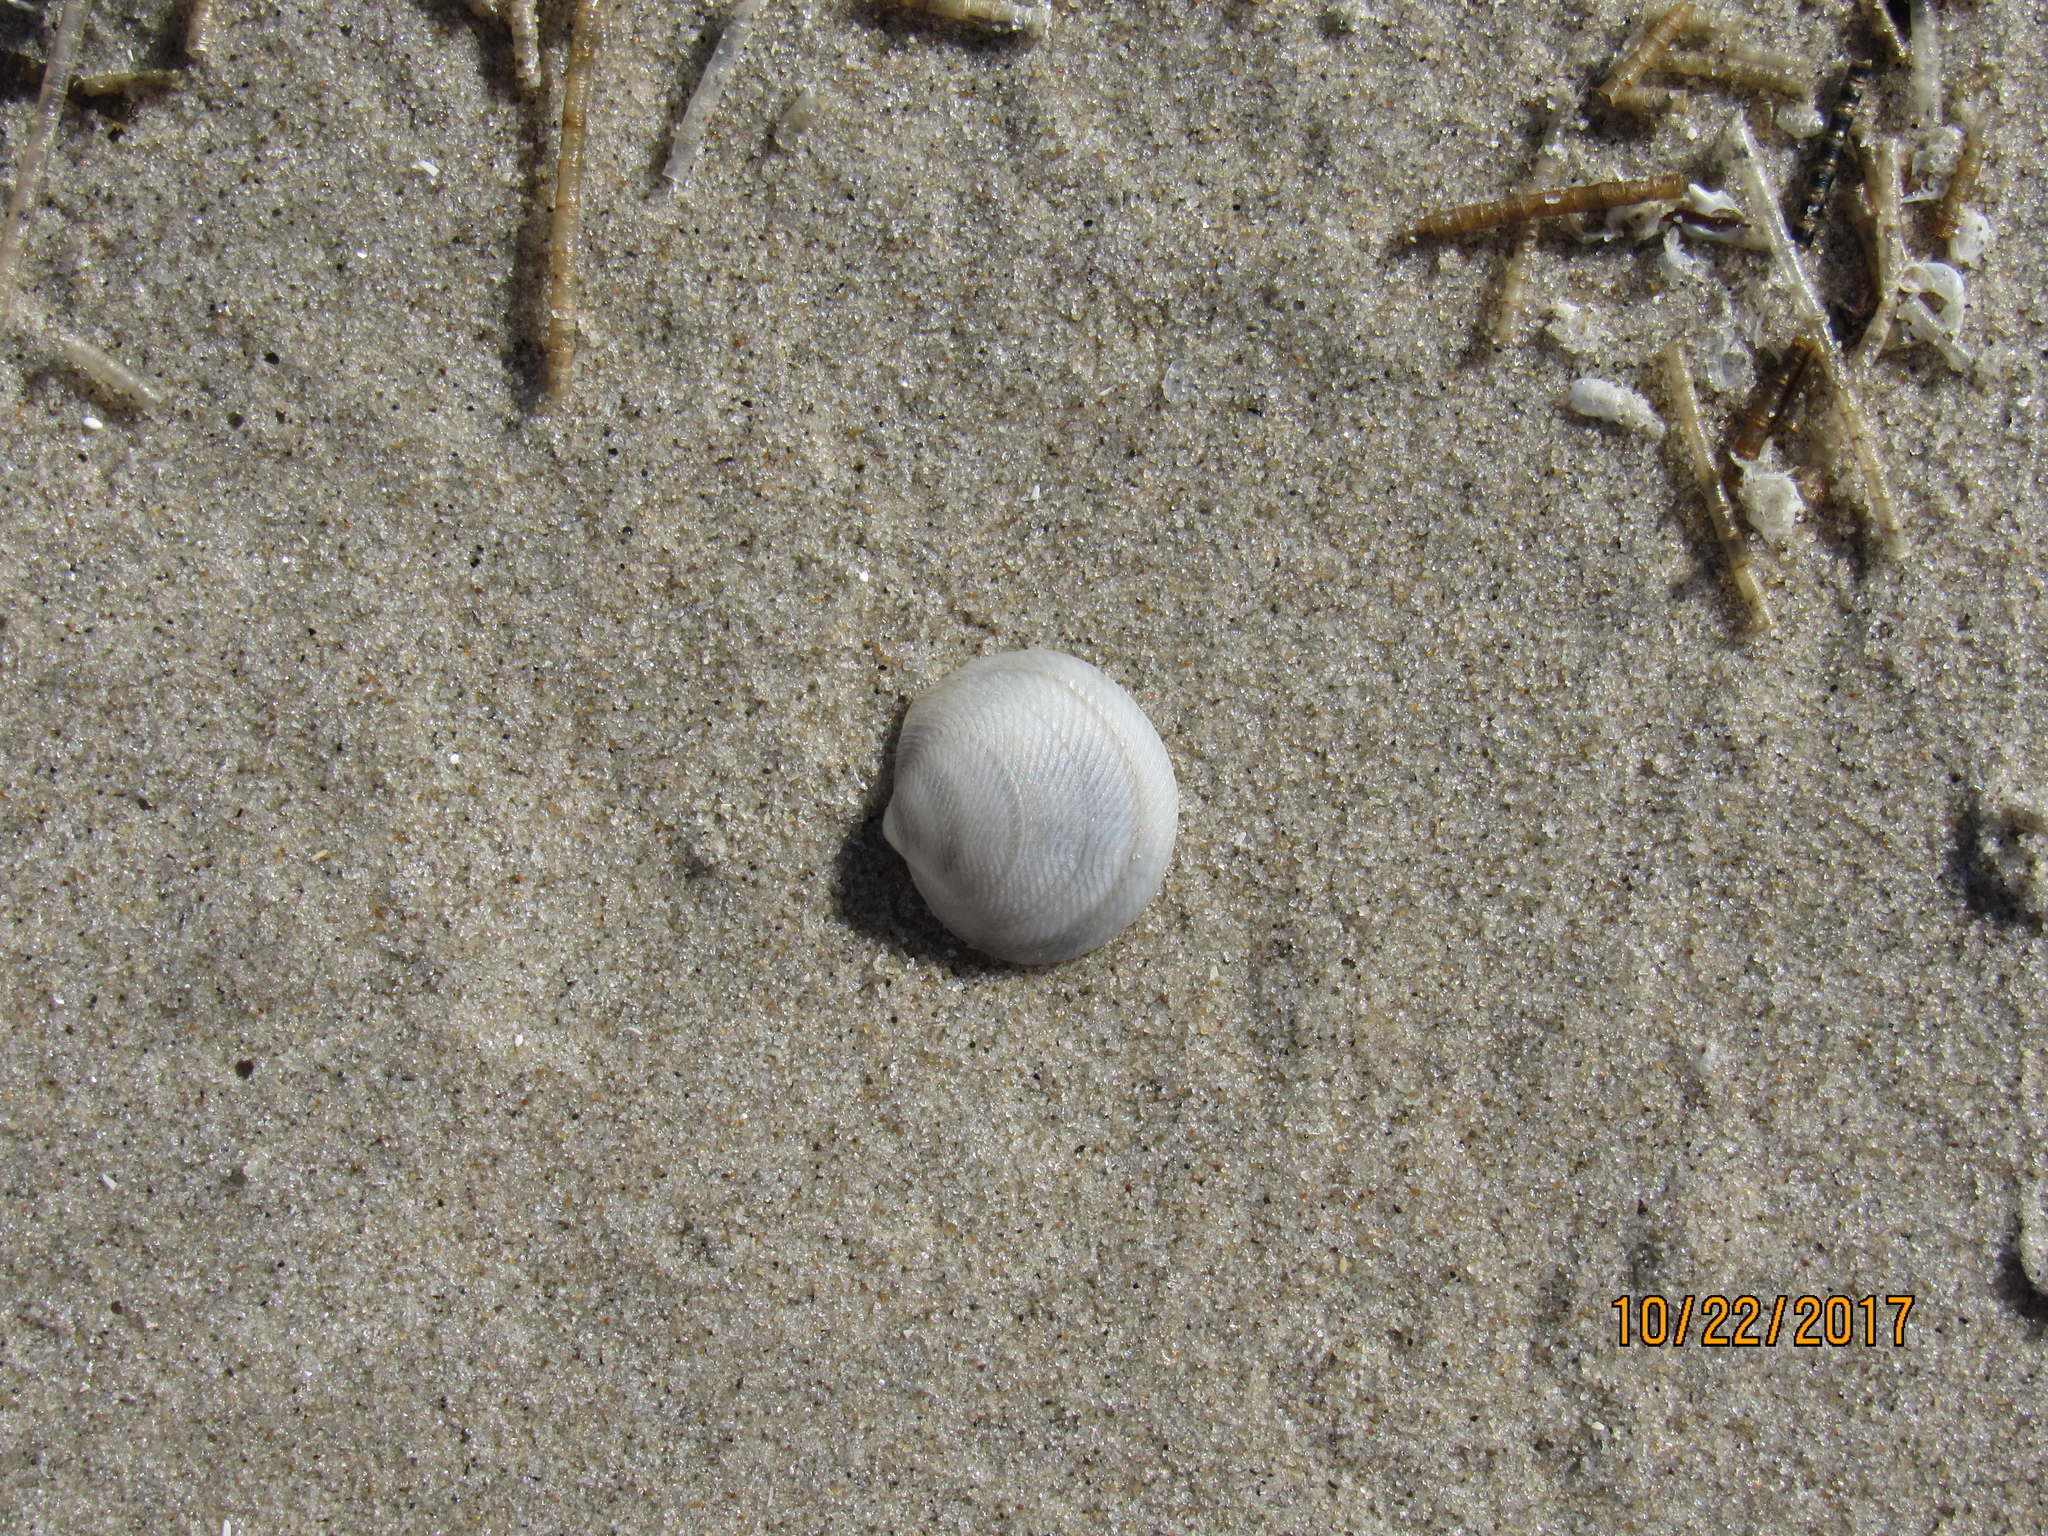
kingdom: Animalia
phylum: Mollusca
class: Bivalvia
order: Lucinida
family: Lucinidae
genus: Divalinga
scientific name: Divalinga quadrisulcata
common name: Cross-hatched lucine
